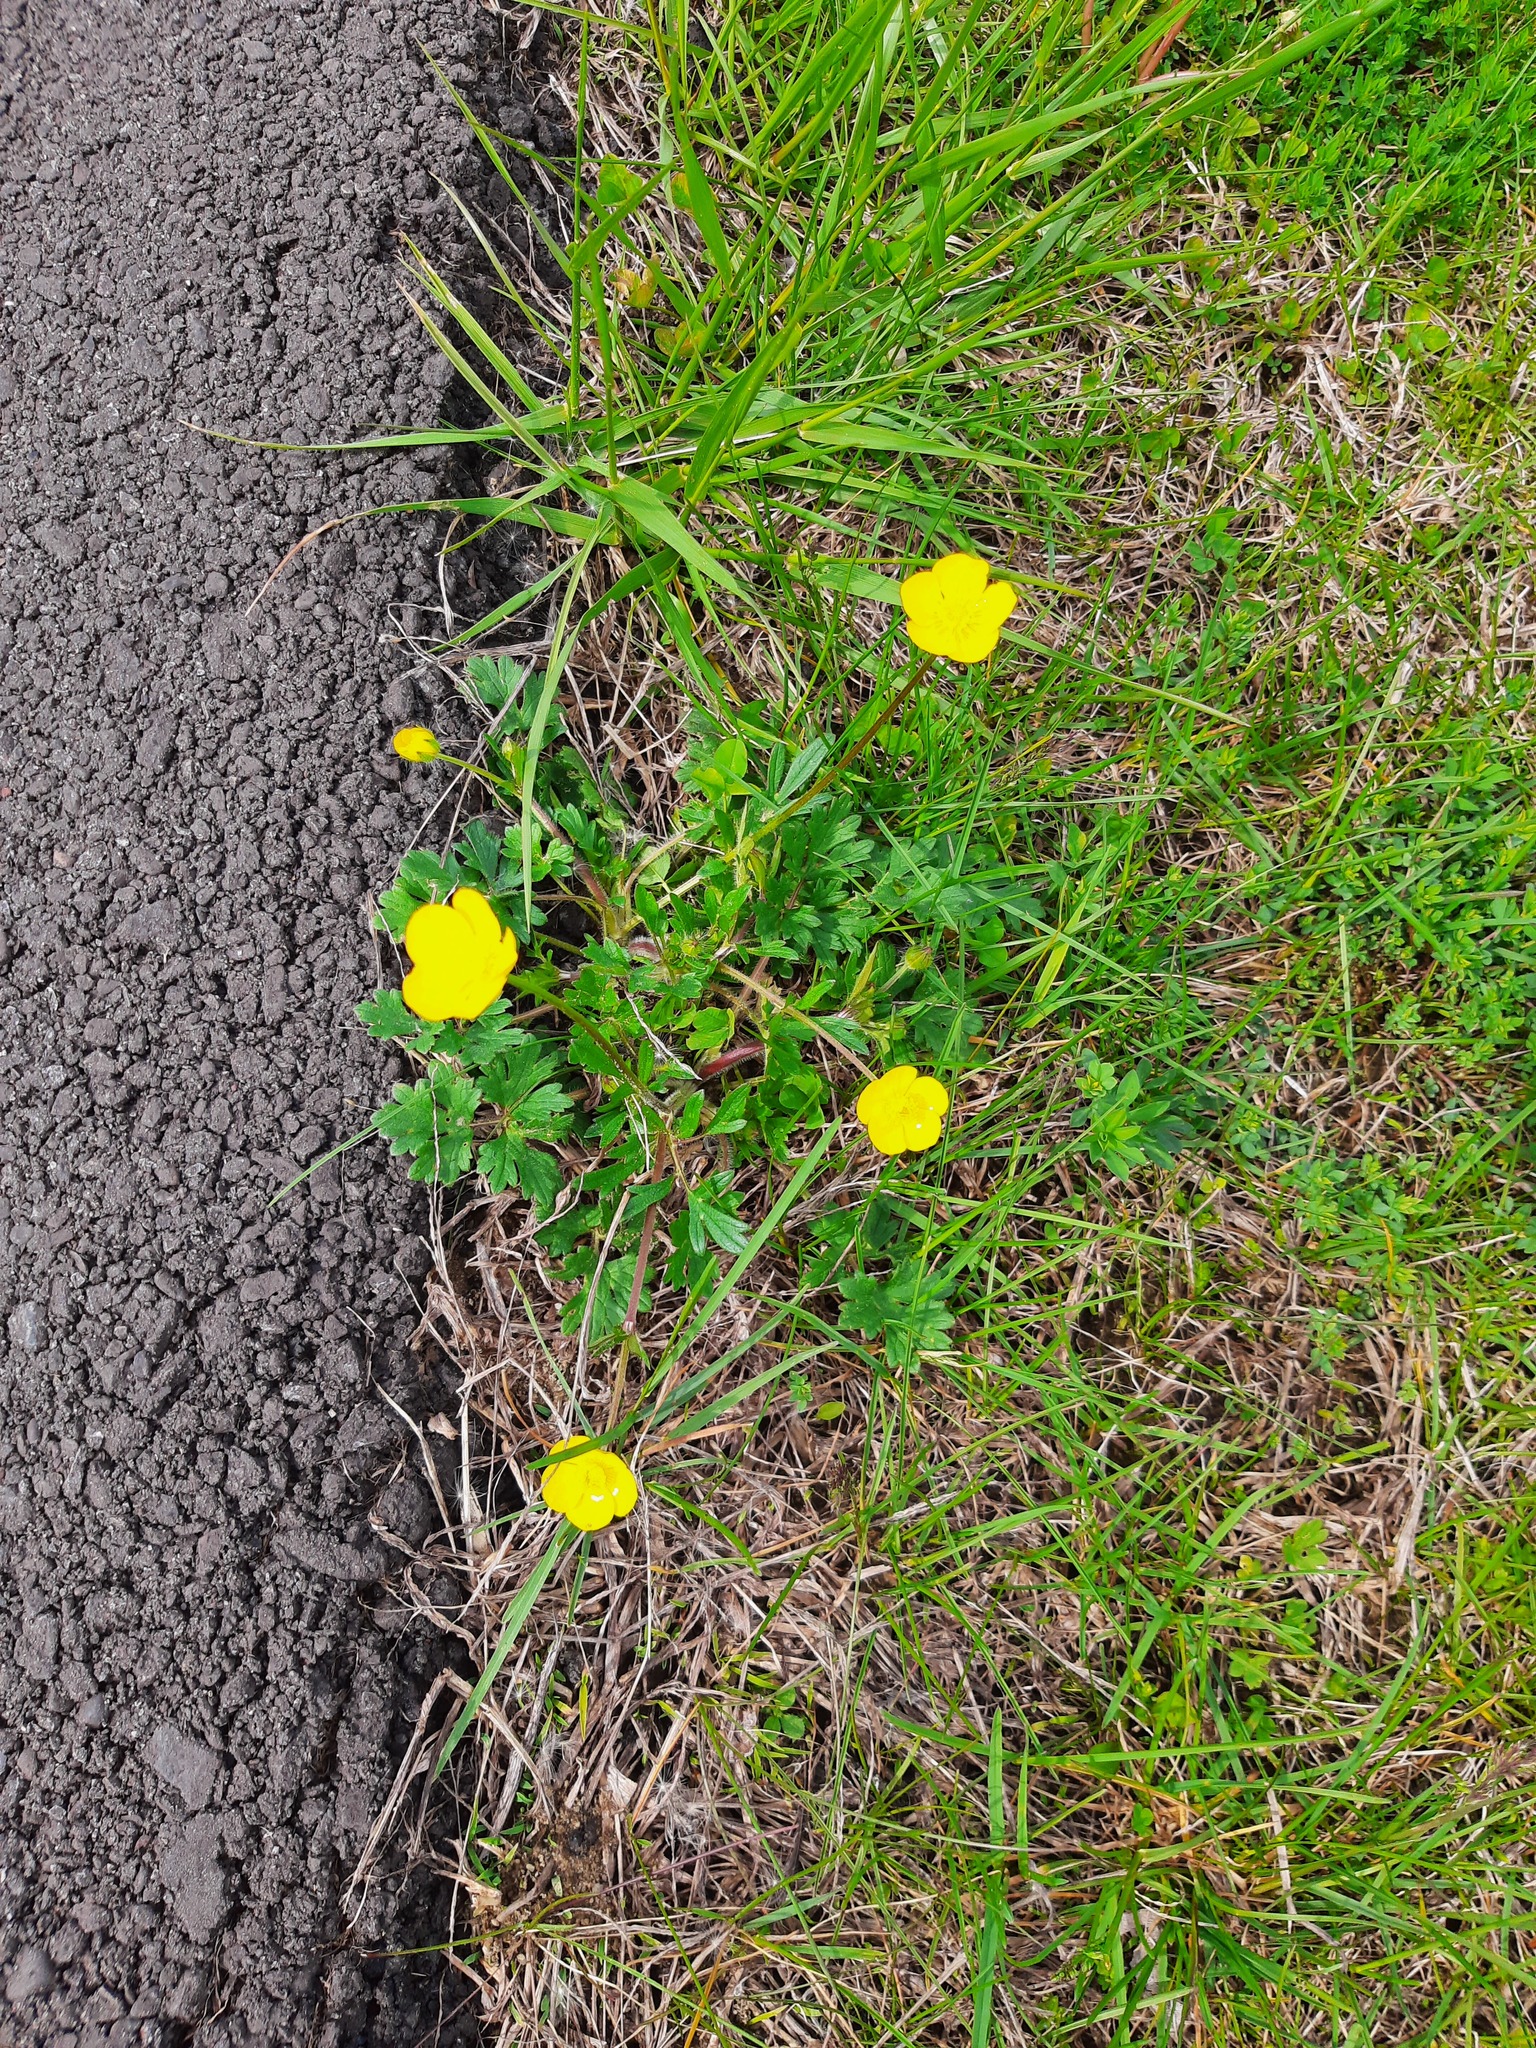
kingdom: Plantae
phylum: Tracheophyta
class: Magnoliopsida
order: Ranunculales
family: Ranunculaceae
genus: Ranunculus
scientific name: Ranunculus bulbosus
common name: Bulbous buttercup
